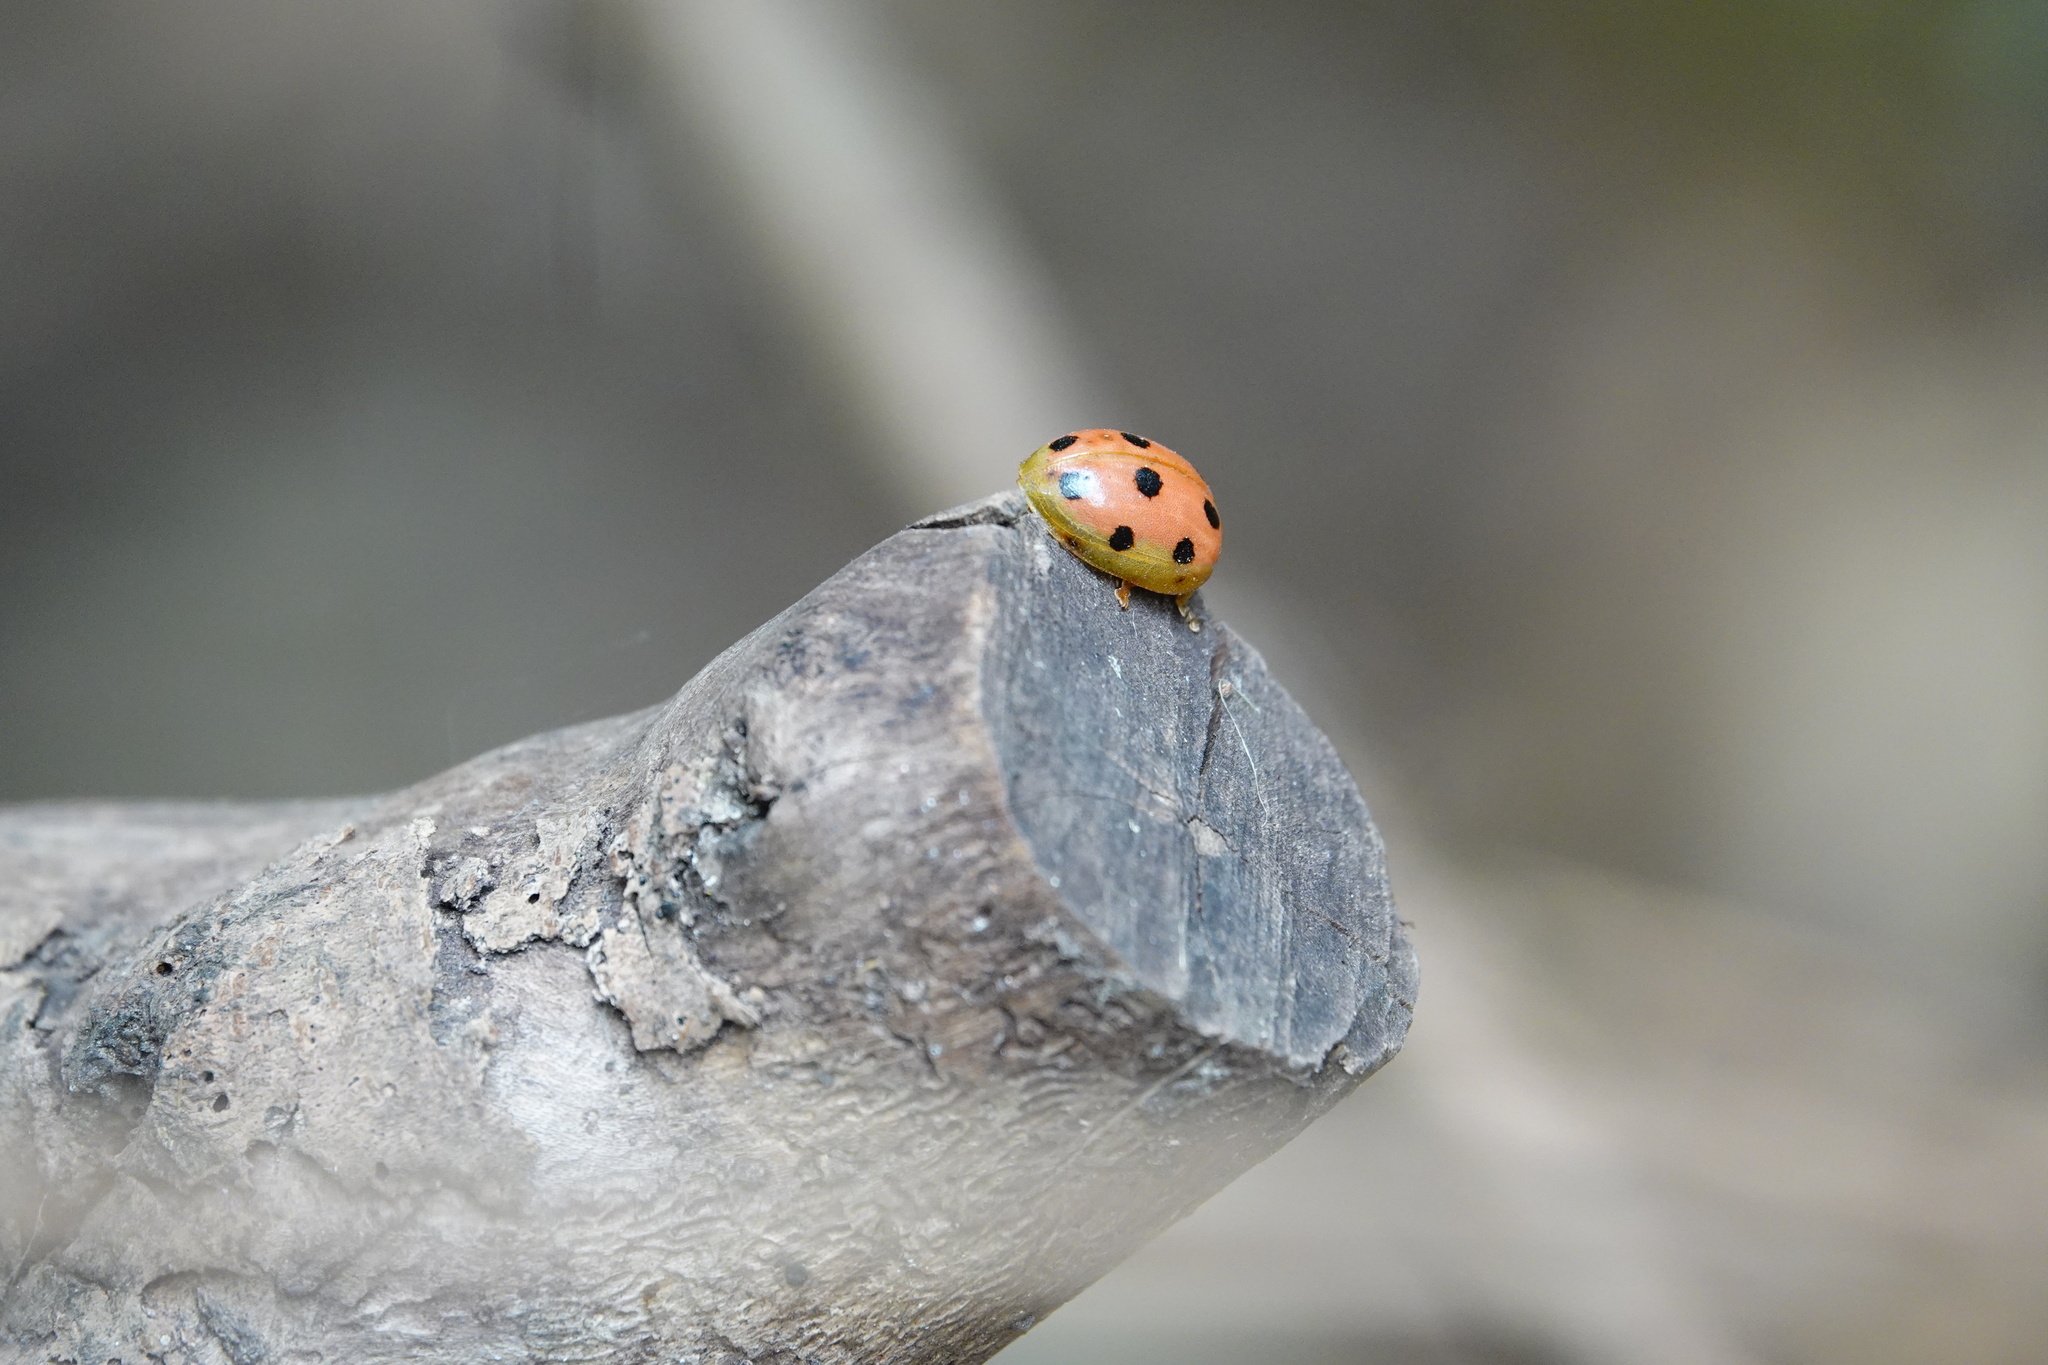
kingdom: Animalia
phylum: Arthropoda
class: Insecta
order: Coleoptera
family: Chrysomelidae
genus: Oides
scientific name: Oides decempunctata
